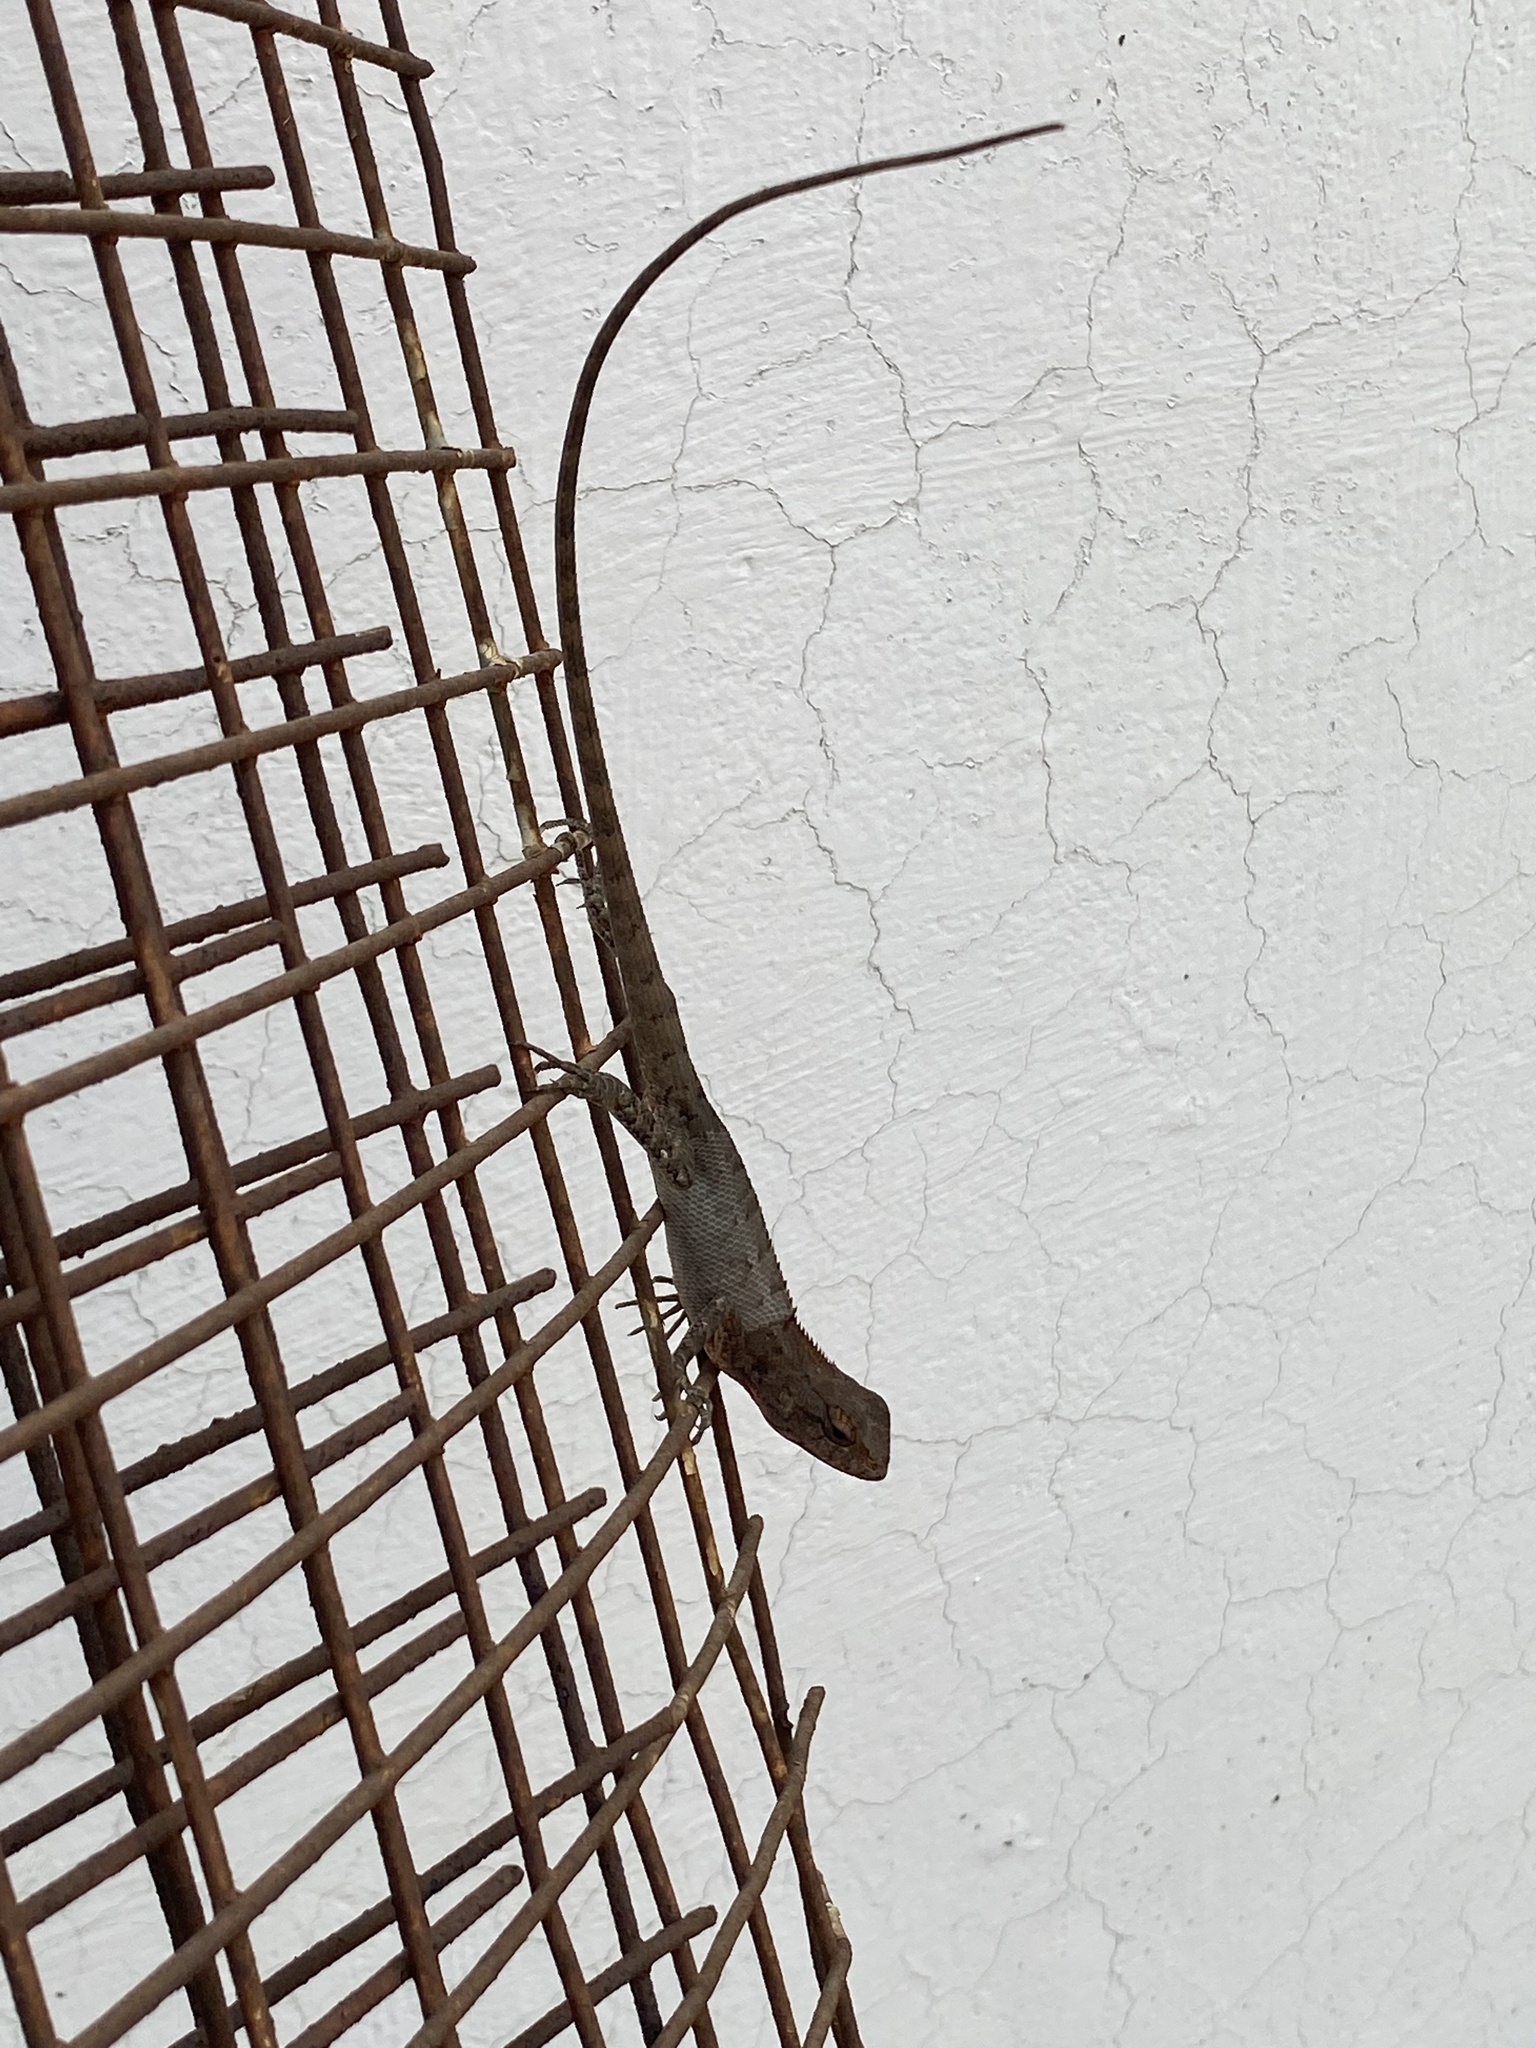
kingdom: Animalia
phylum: Chordata
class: Squamata
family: Agamidae
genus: Calotes
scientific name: Calotes versicolor
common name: Oriental garden lizard
